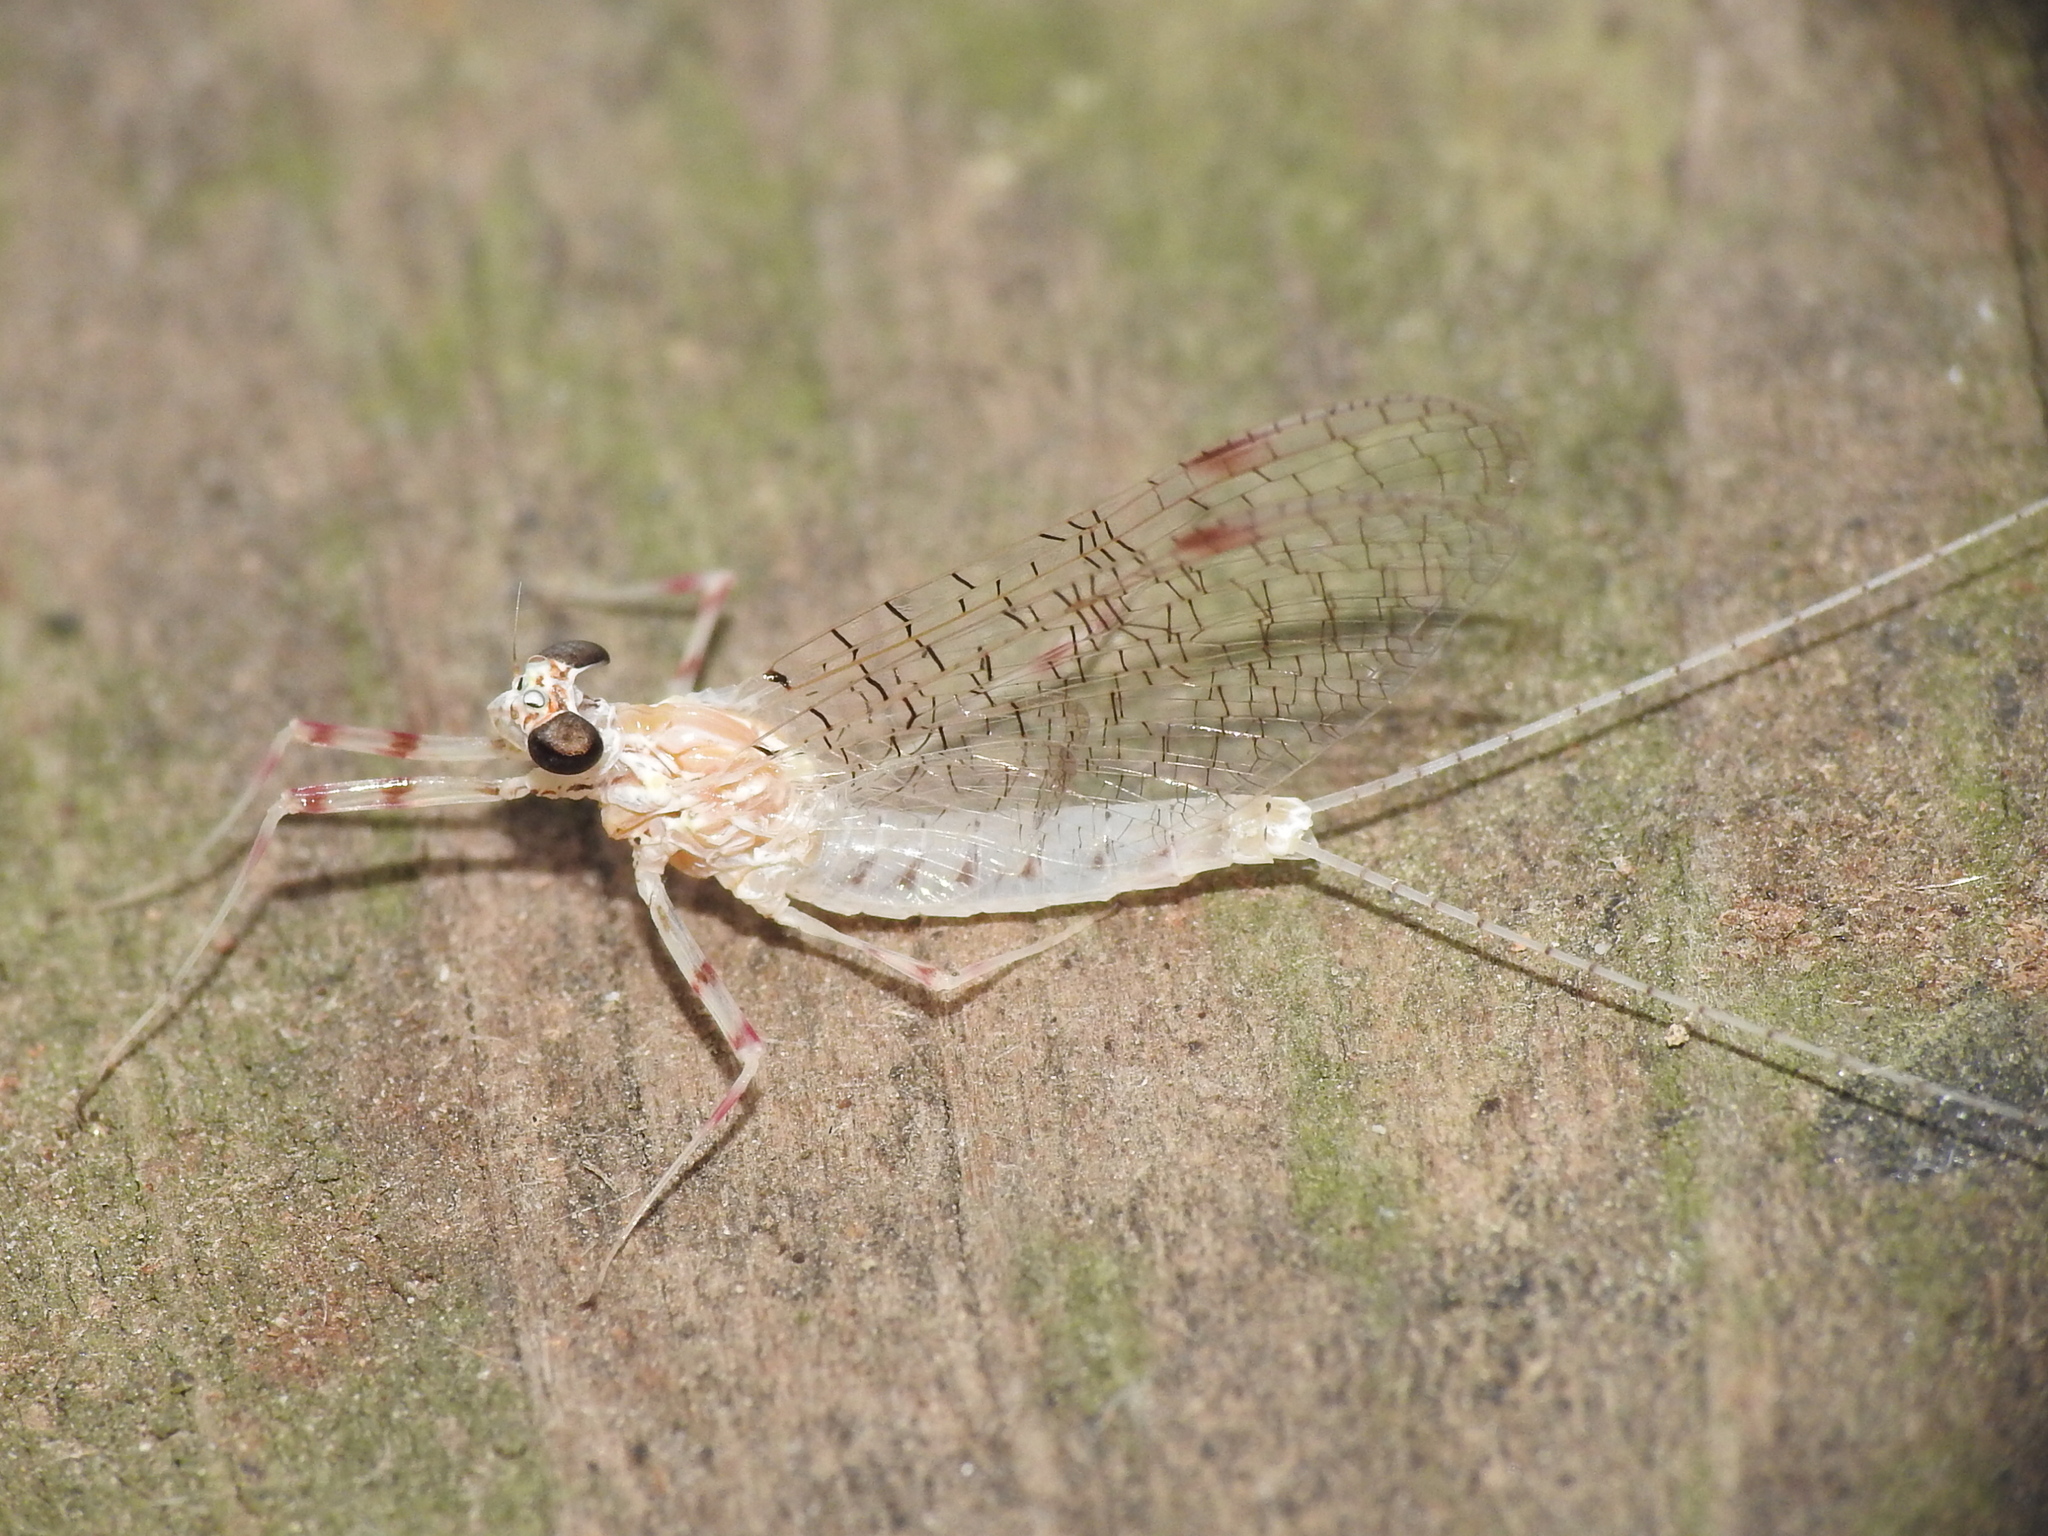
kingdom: Animalia
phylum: Arthropoda
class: Insecta
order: Ephemeroptera
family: Heptageniidae
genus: Stenonema
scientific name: Stenonema femoratum
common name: Dark cahill
